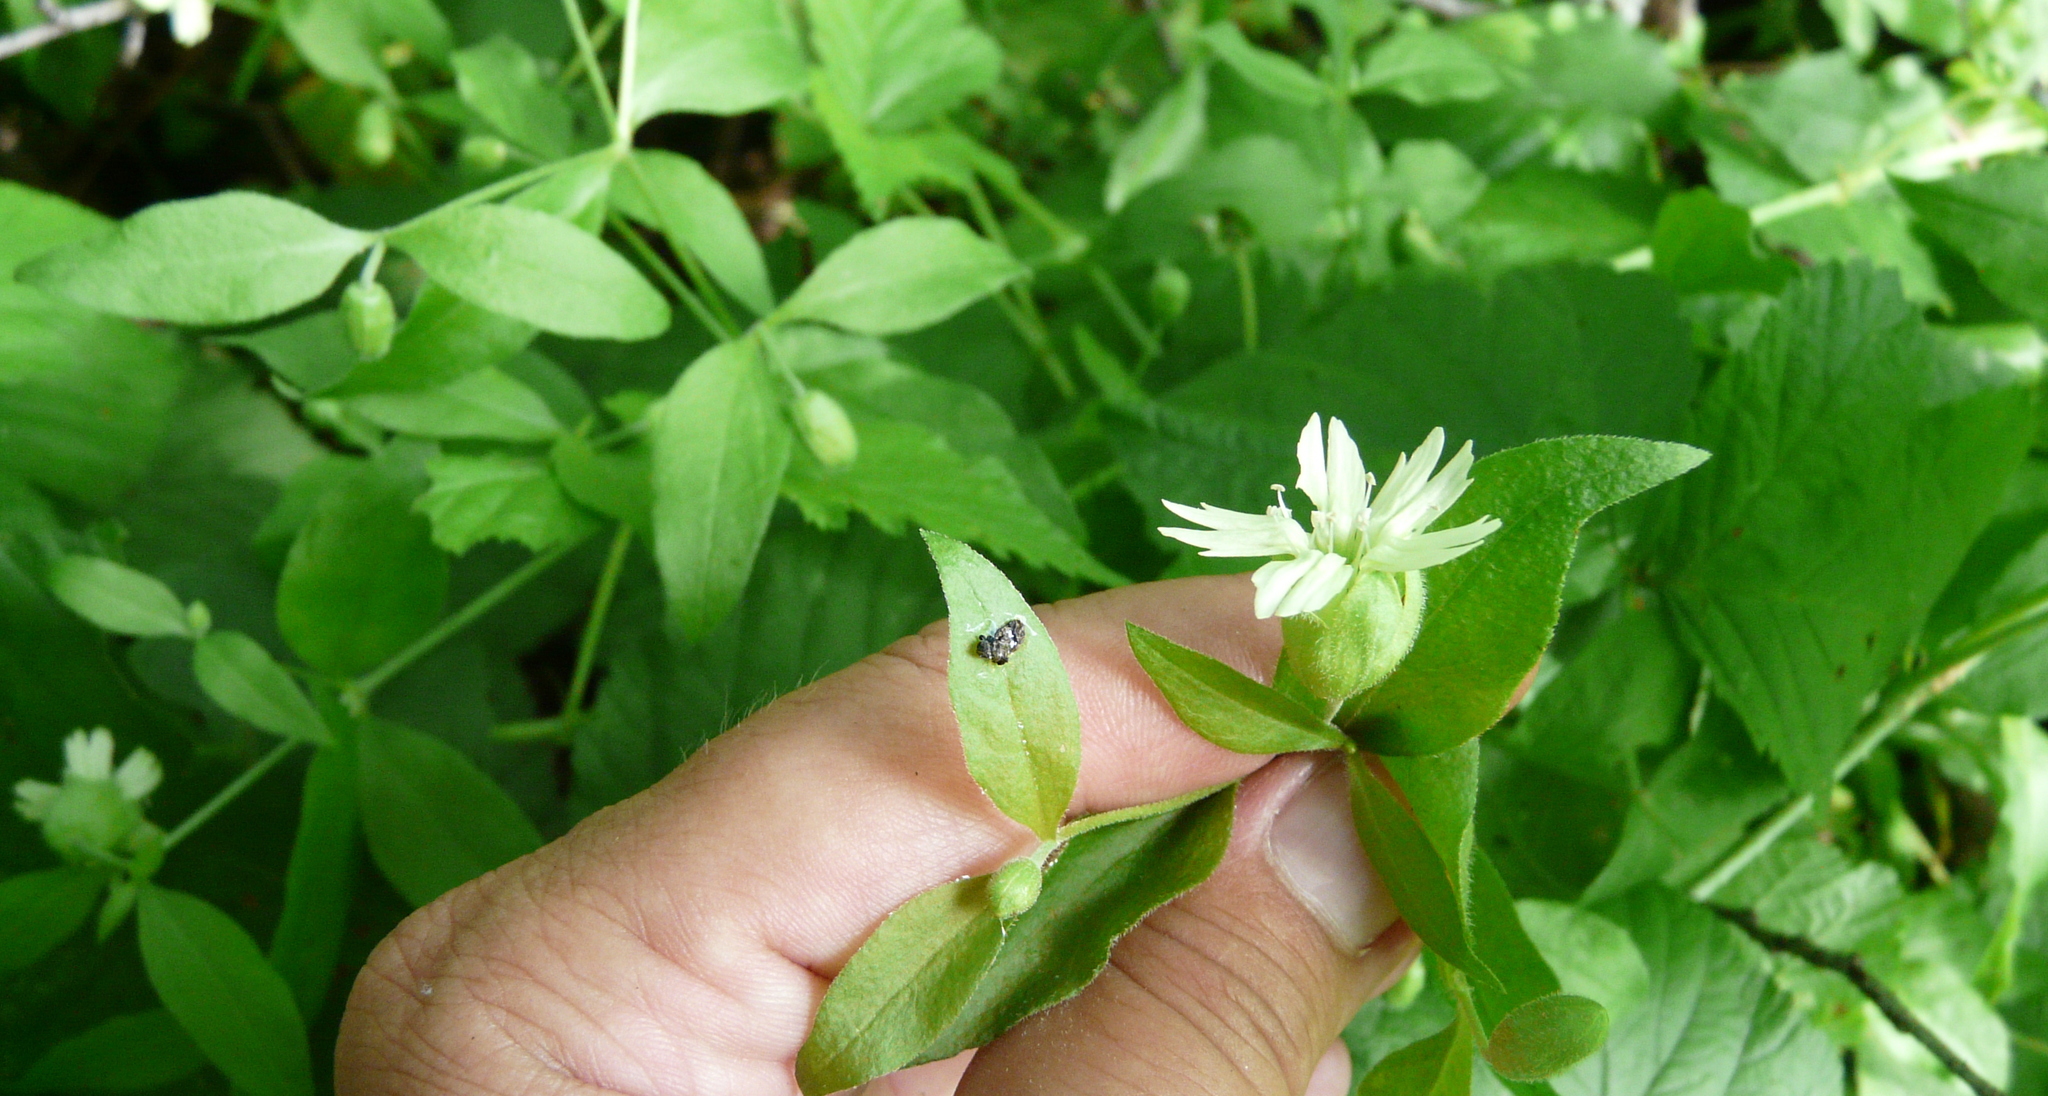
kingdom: Plantae
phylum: Tracheophyta
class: Magnoliopsida
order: Caryophyllales
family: Caryophyllaceae
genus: Silene
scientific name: Silene baccifera
